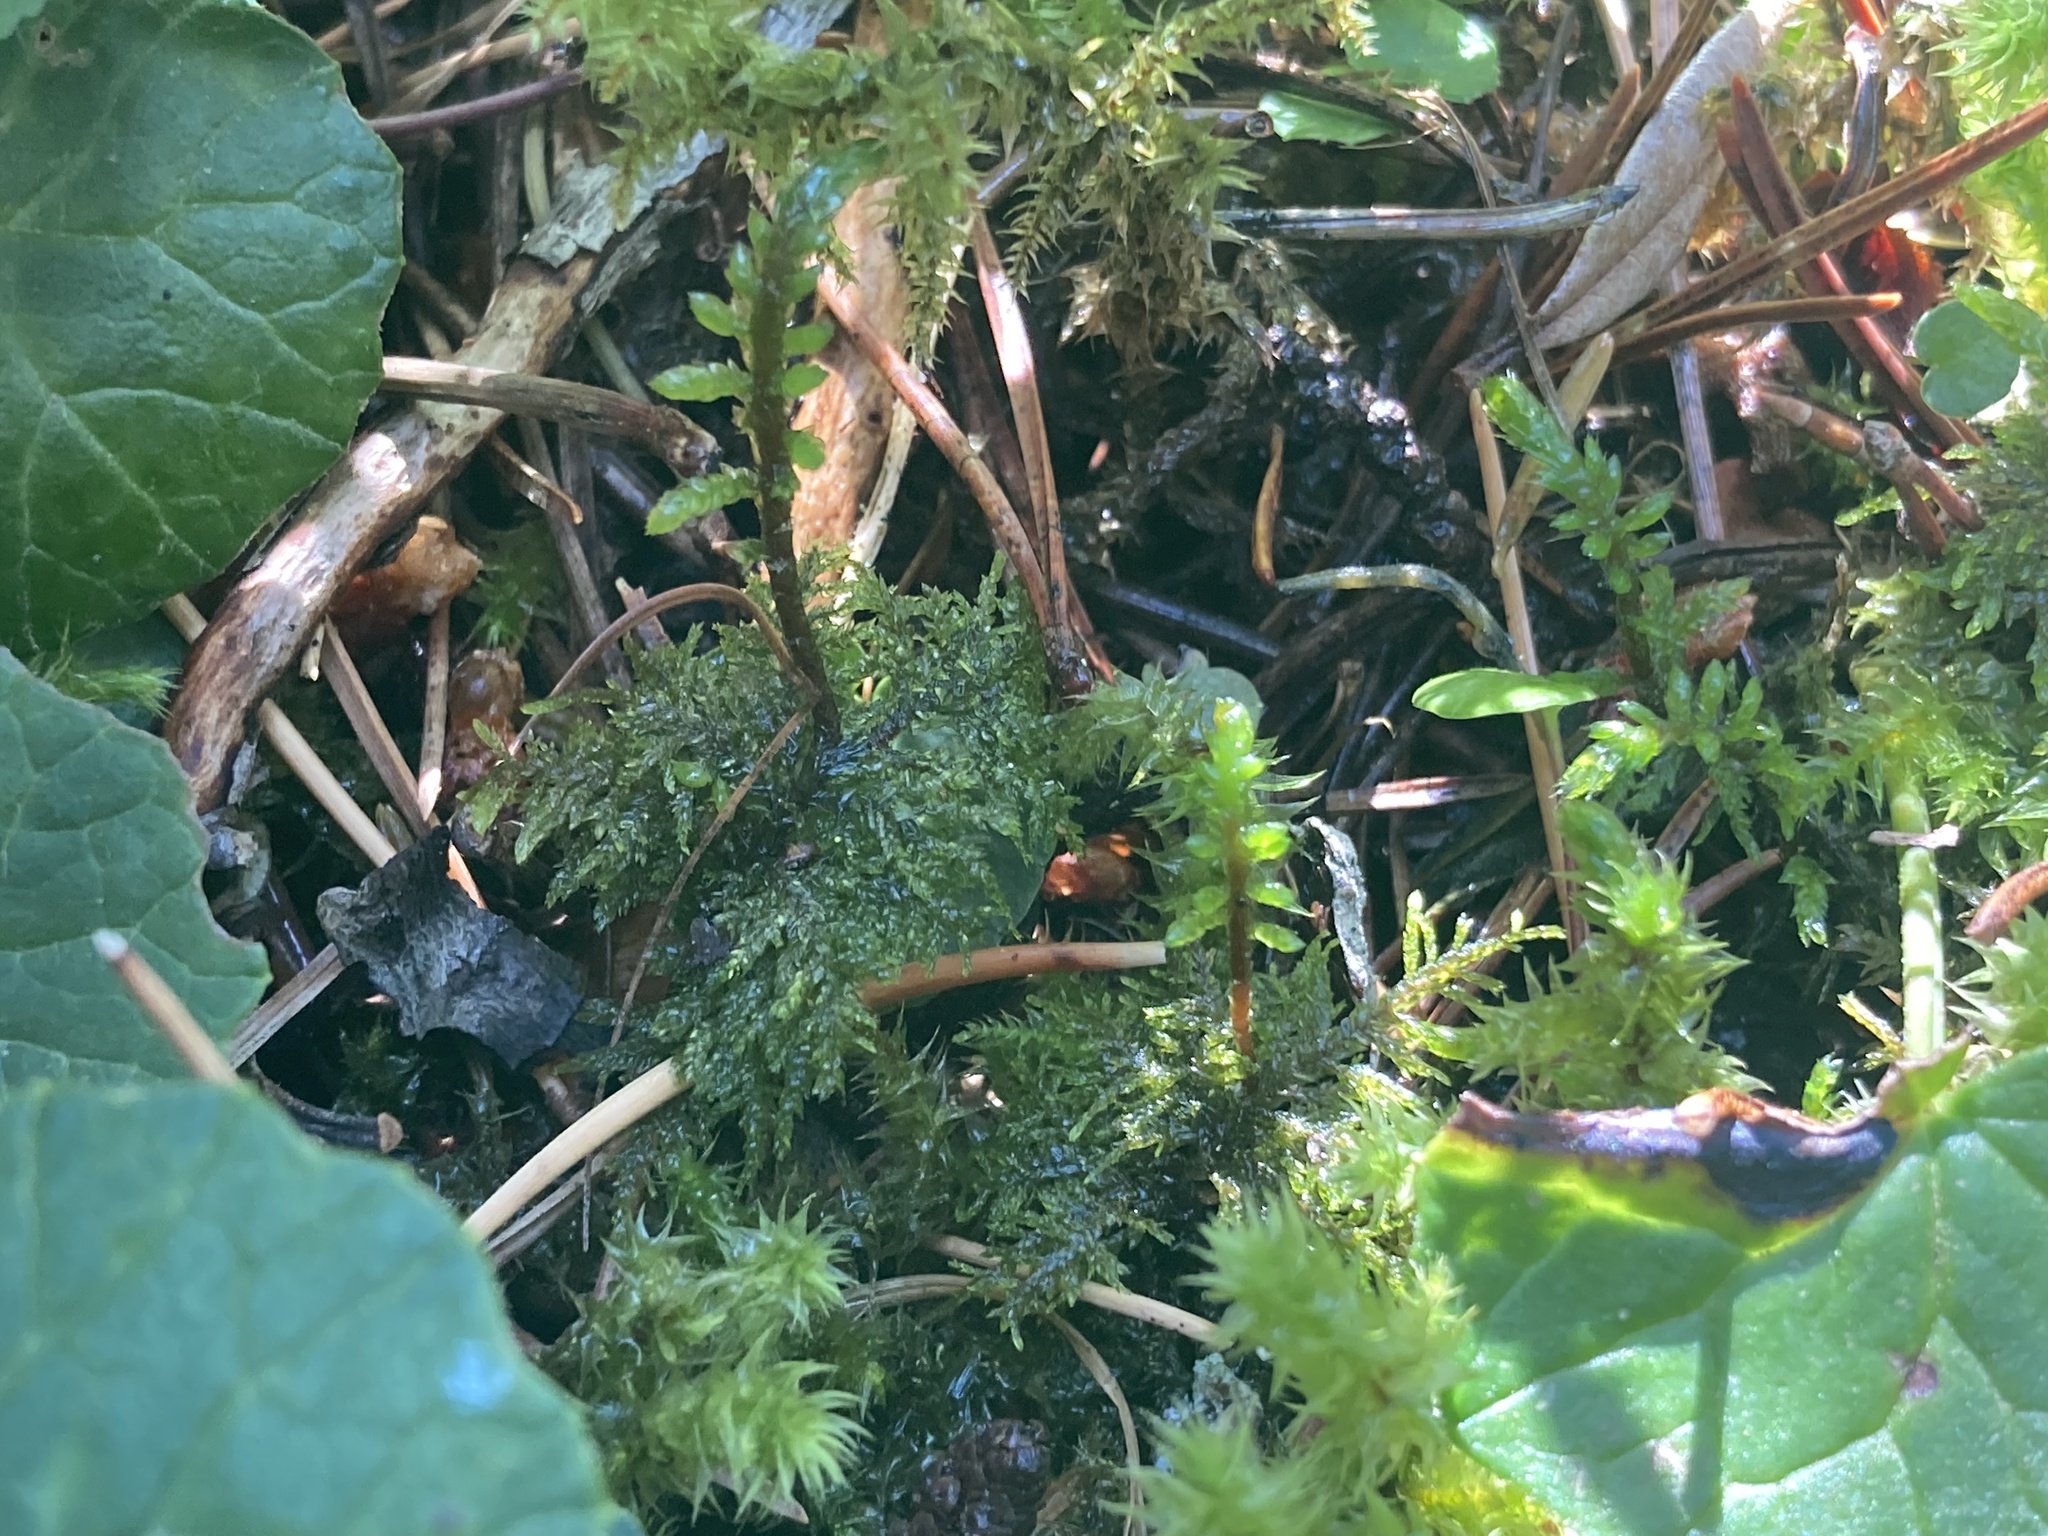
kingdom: Plantae
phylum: Bryophyta
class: Bryopsida
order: Hypnales
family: Hylocomiaceae
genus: Hylocomium
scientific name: Hylocomium splendens
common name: Stairstep moss
